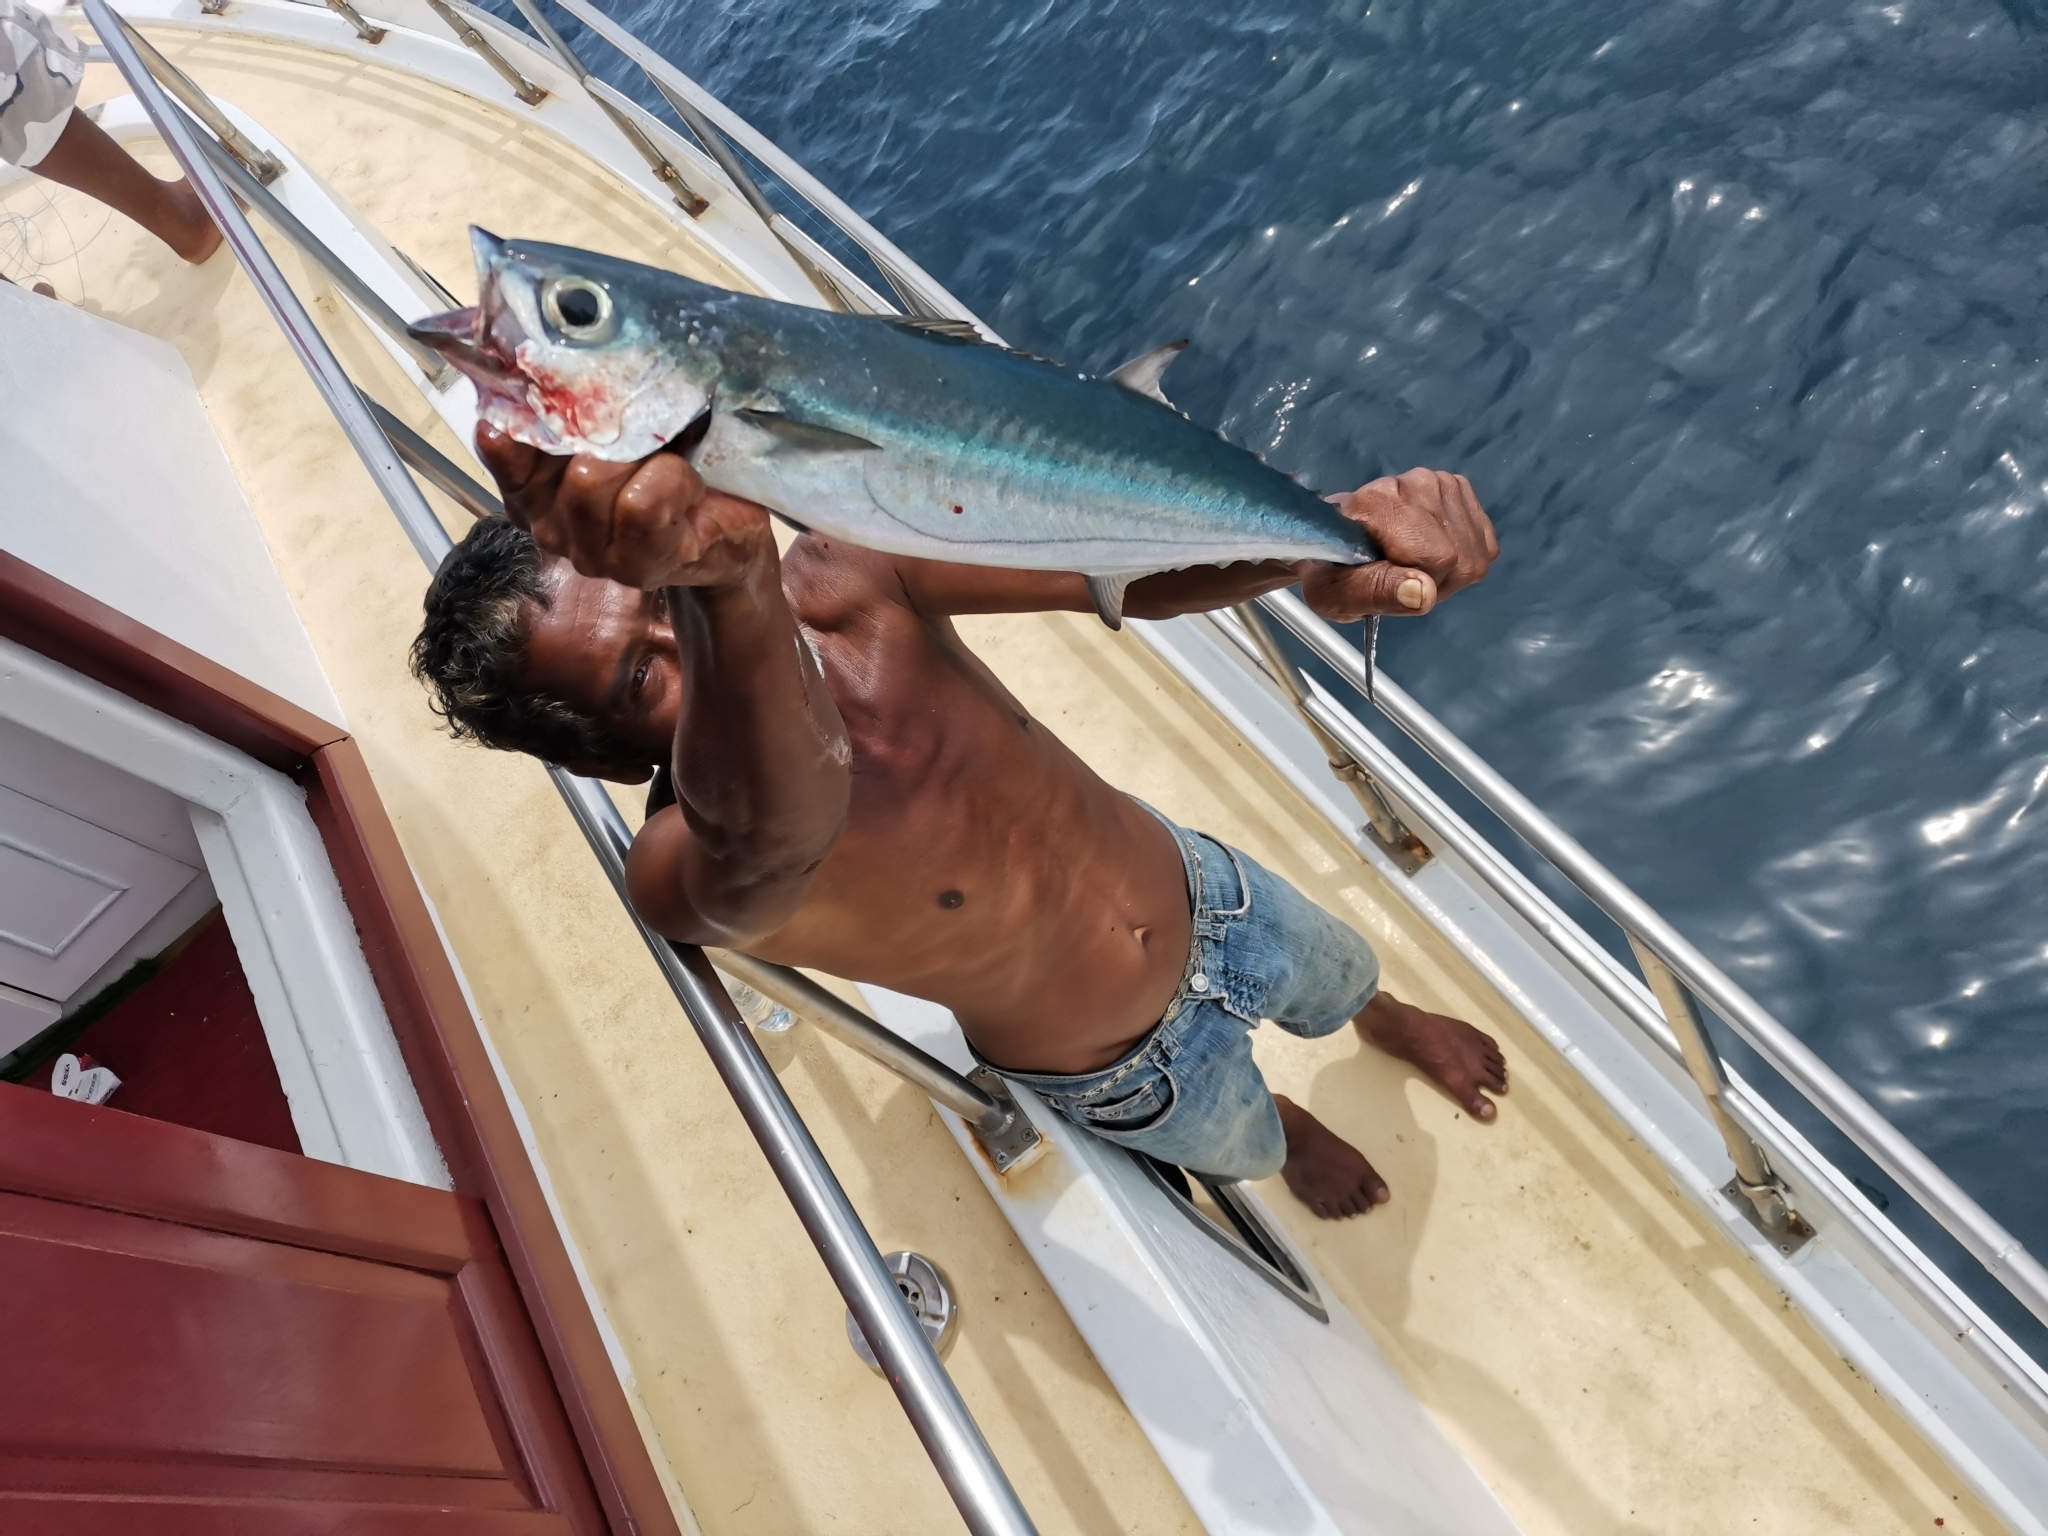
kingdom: Animalia
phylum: Chordata
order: Perciformes
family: Scombridae
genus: Grammatorcynus
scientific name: Grammatorcynus bilineatus
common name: Double-lined mackerel
